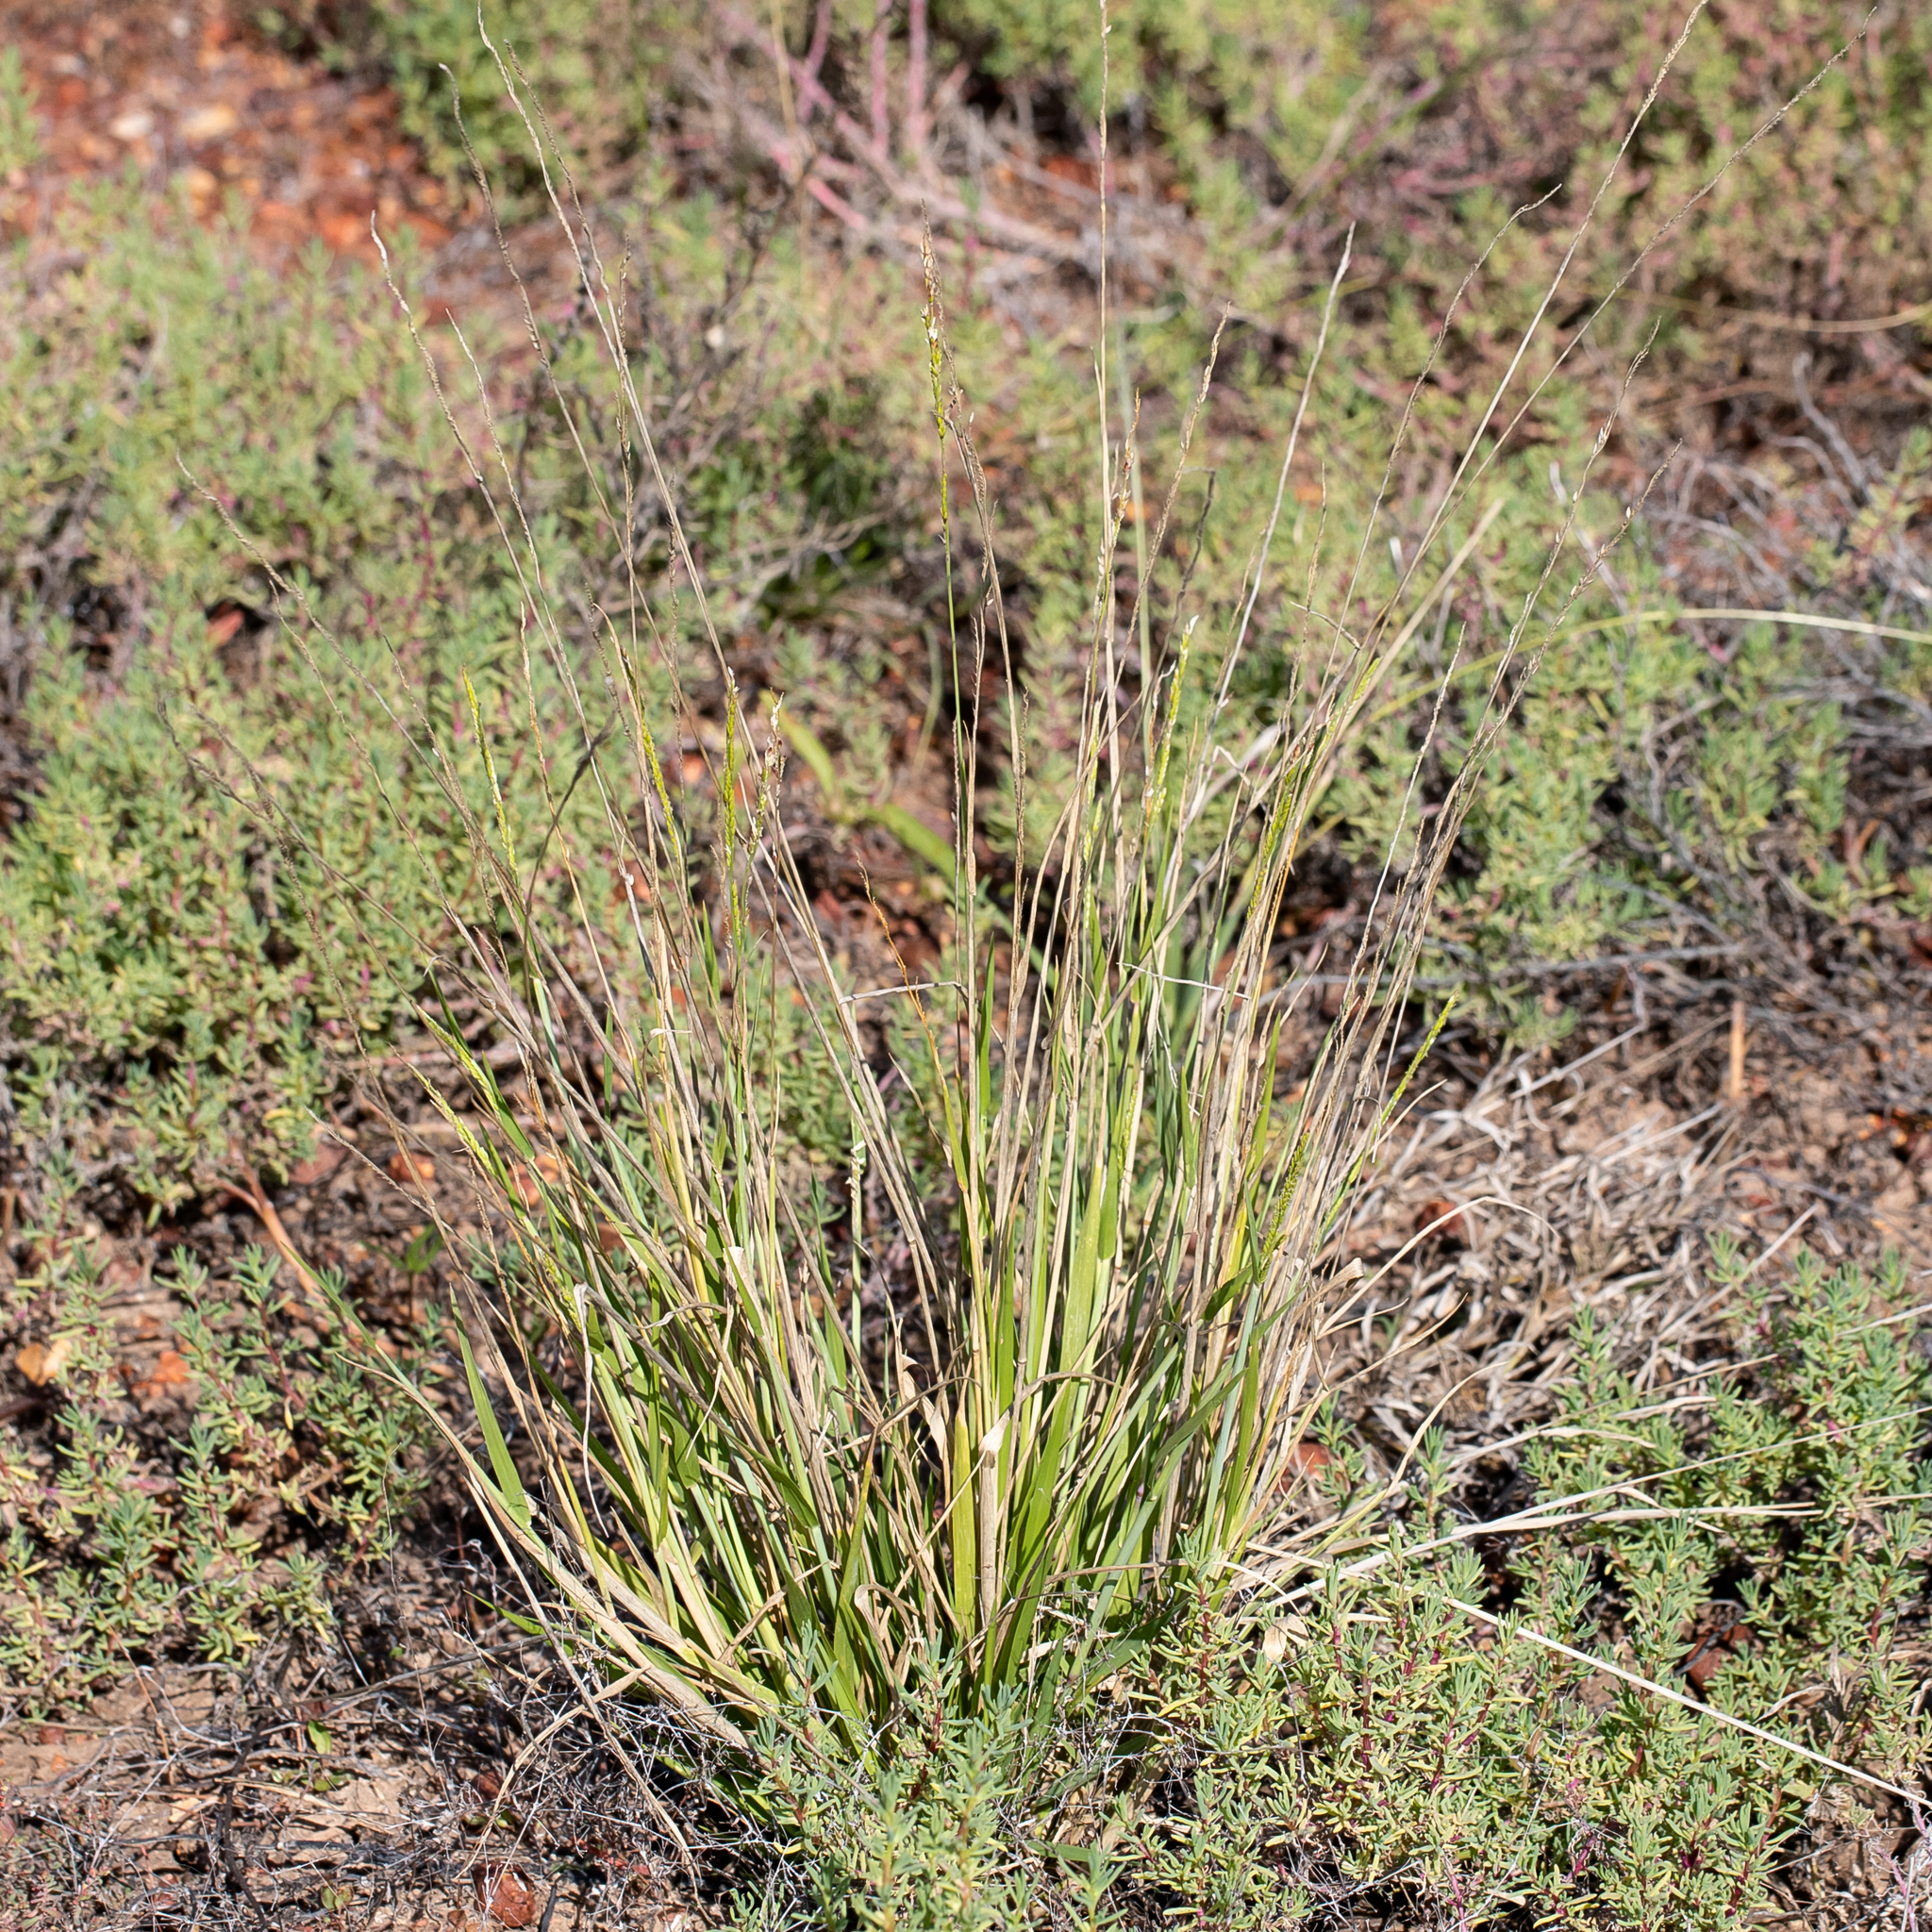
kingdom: Plantae
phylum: Tracheophyta
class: Liliopsida
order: Poales
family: Poaceae
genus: Eriochloa
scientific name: Eriochloa crebra
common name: Cup grass
